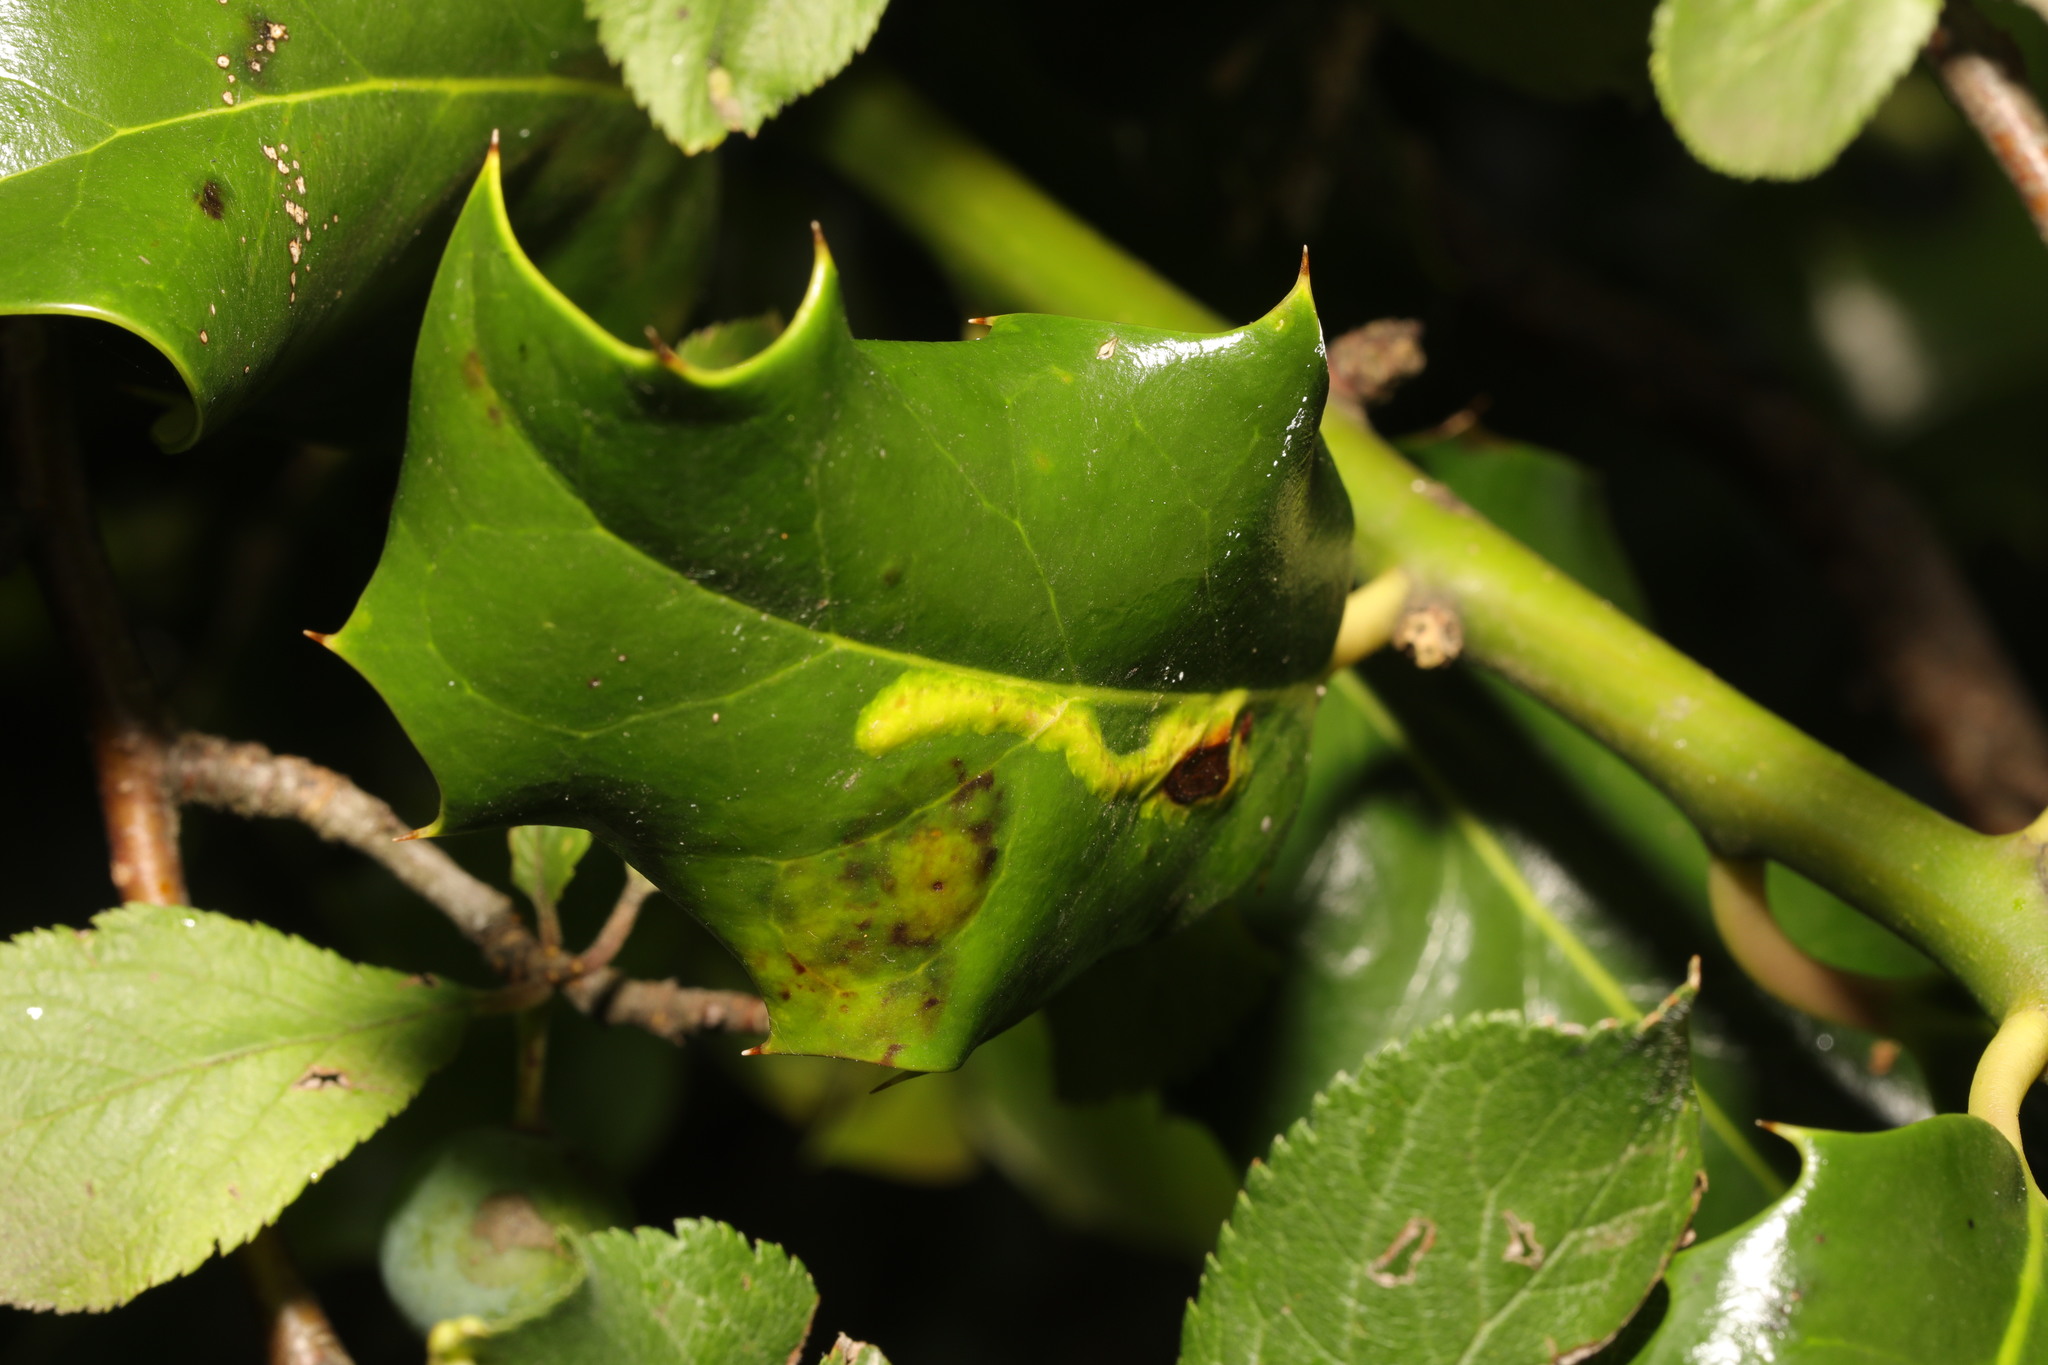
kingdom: Animalia
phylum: Arthropoda
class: Insecta
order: Diptera
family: Agromyzidae
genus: Phytomyza
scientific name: Phytomyza ilicis
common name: Holly leafminer
